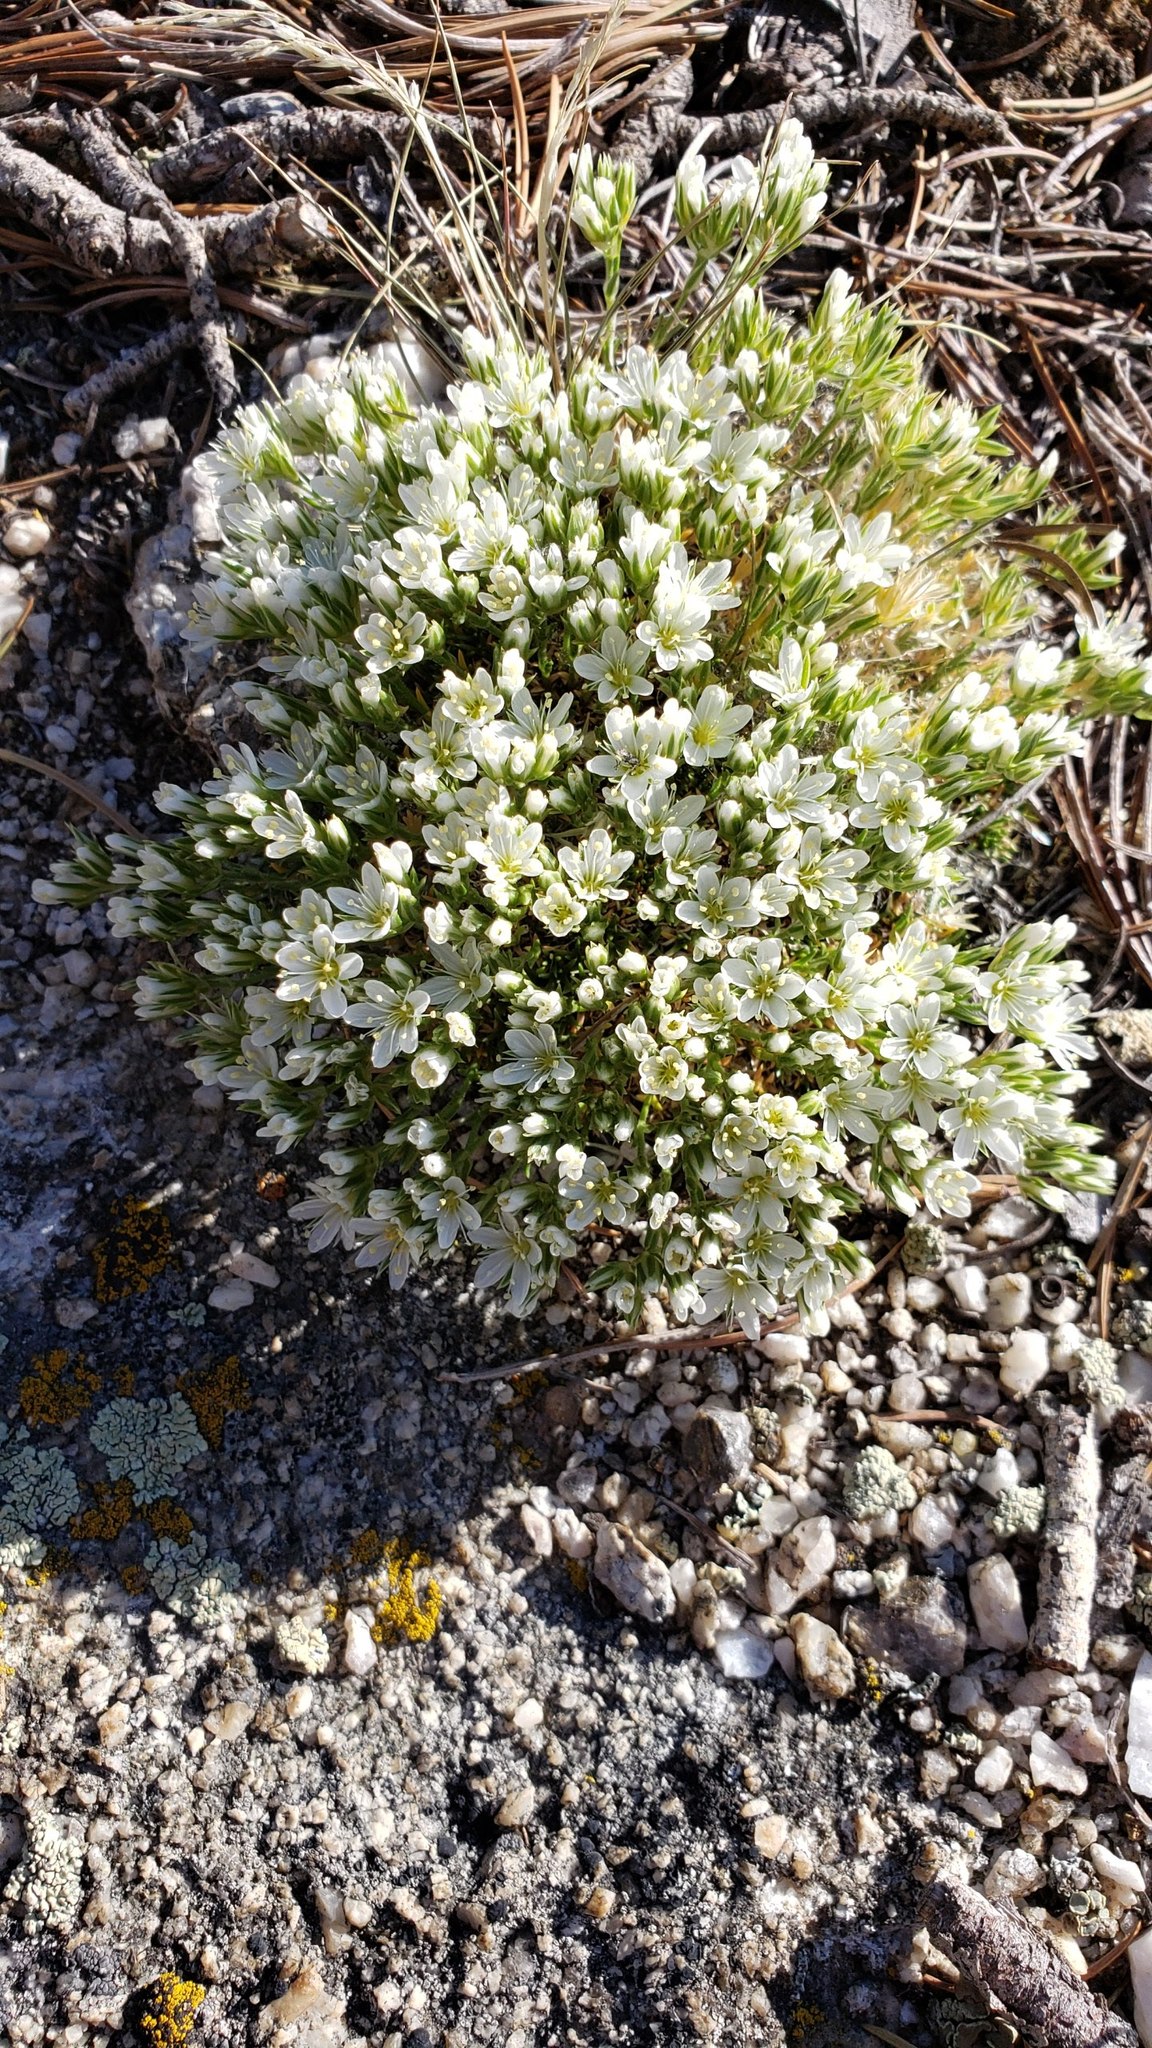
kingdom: Plantae
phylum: Tracheophyta
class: Magnoliopsida
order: Caryophyllales
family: Caryophyllaceae
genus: Eremogone
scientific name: Eremogone hookeri
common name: Hooker's sandwort
